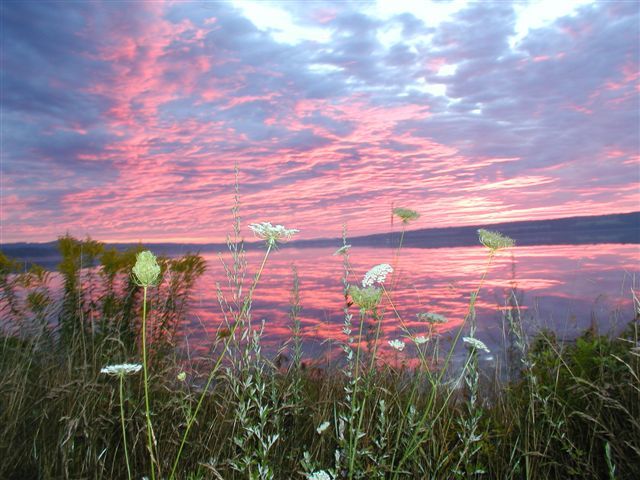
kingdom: Plantae
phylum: Tracheophyta
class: Magnoliopsida
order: Apiales
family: Apiaceae
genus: Daucus
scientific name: Daucus carota
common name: Wild carrot
